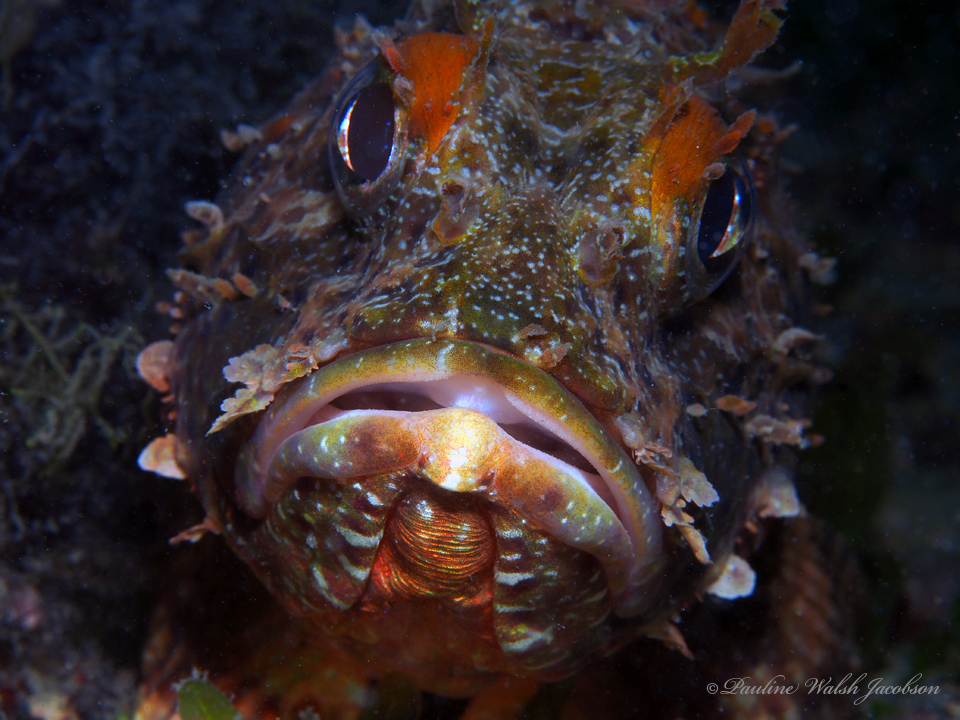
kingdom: Animalia
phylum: Chordata
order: Scorpaeniformes
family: Scorpaenidae
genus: Scorpaena
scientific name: Scorpaena brasiliensis
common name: Barbfish
